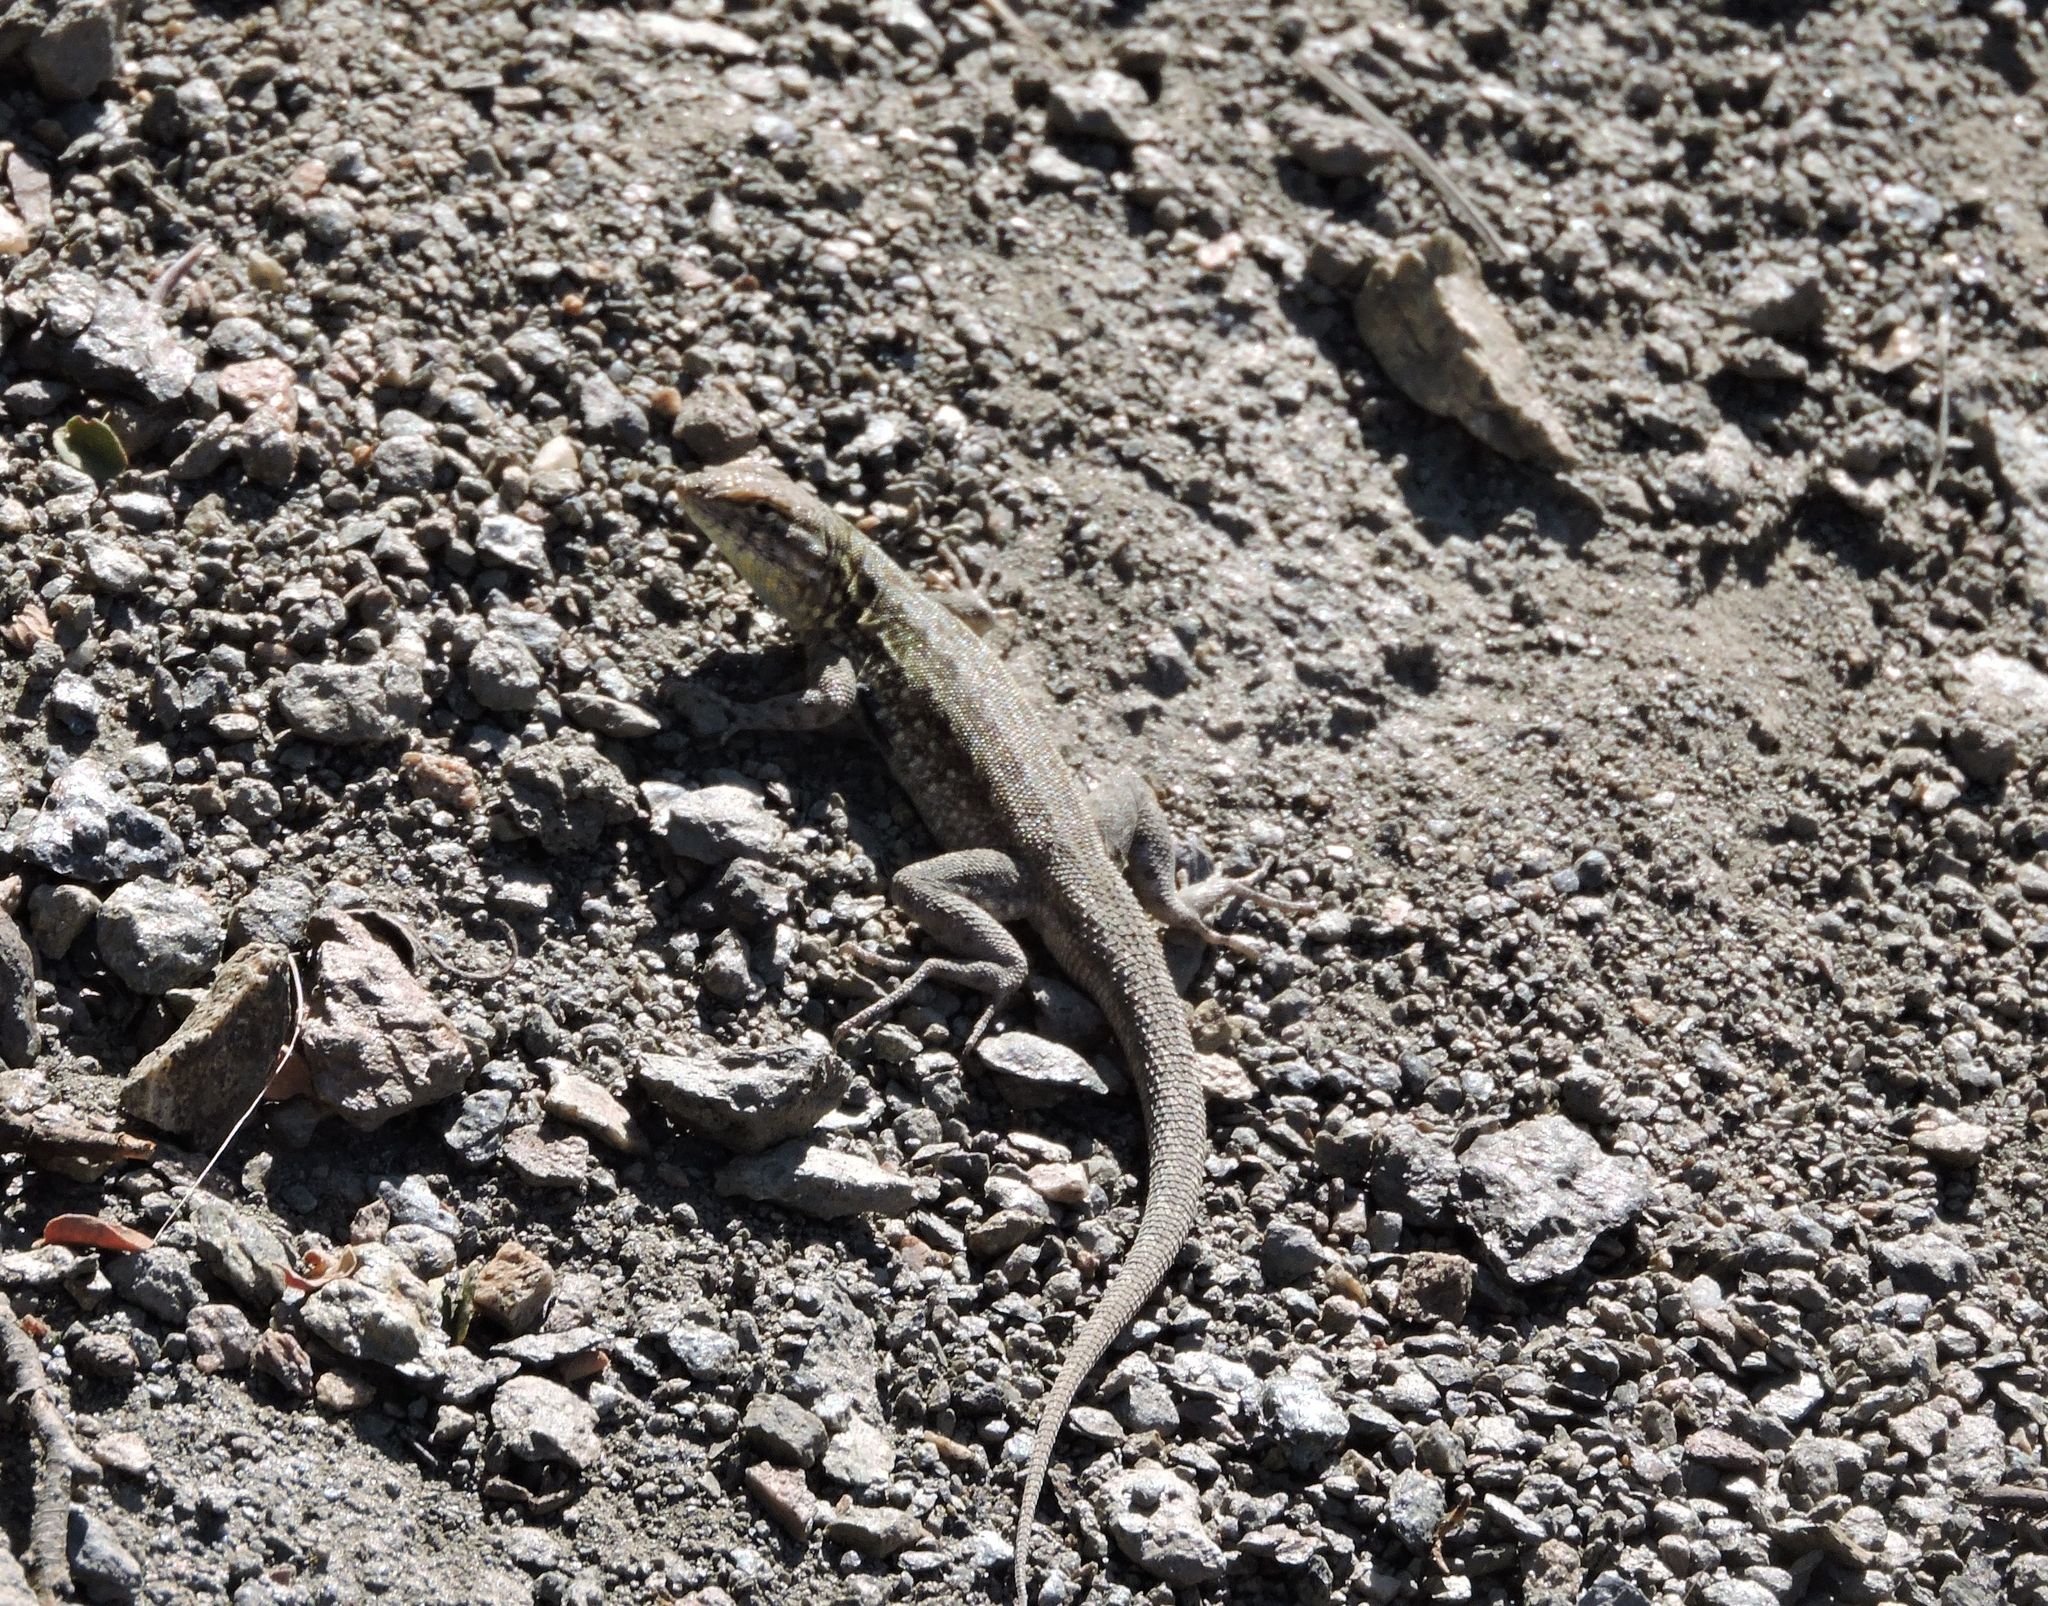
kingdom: Animalia
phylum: Chordata
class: Squamata
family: Phrynosomatidae
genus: Uta
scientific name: Uta stansburiana
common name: Side-blotched lizard
